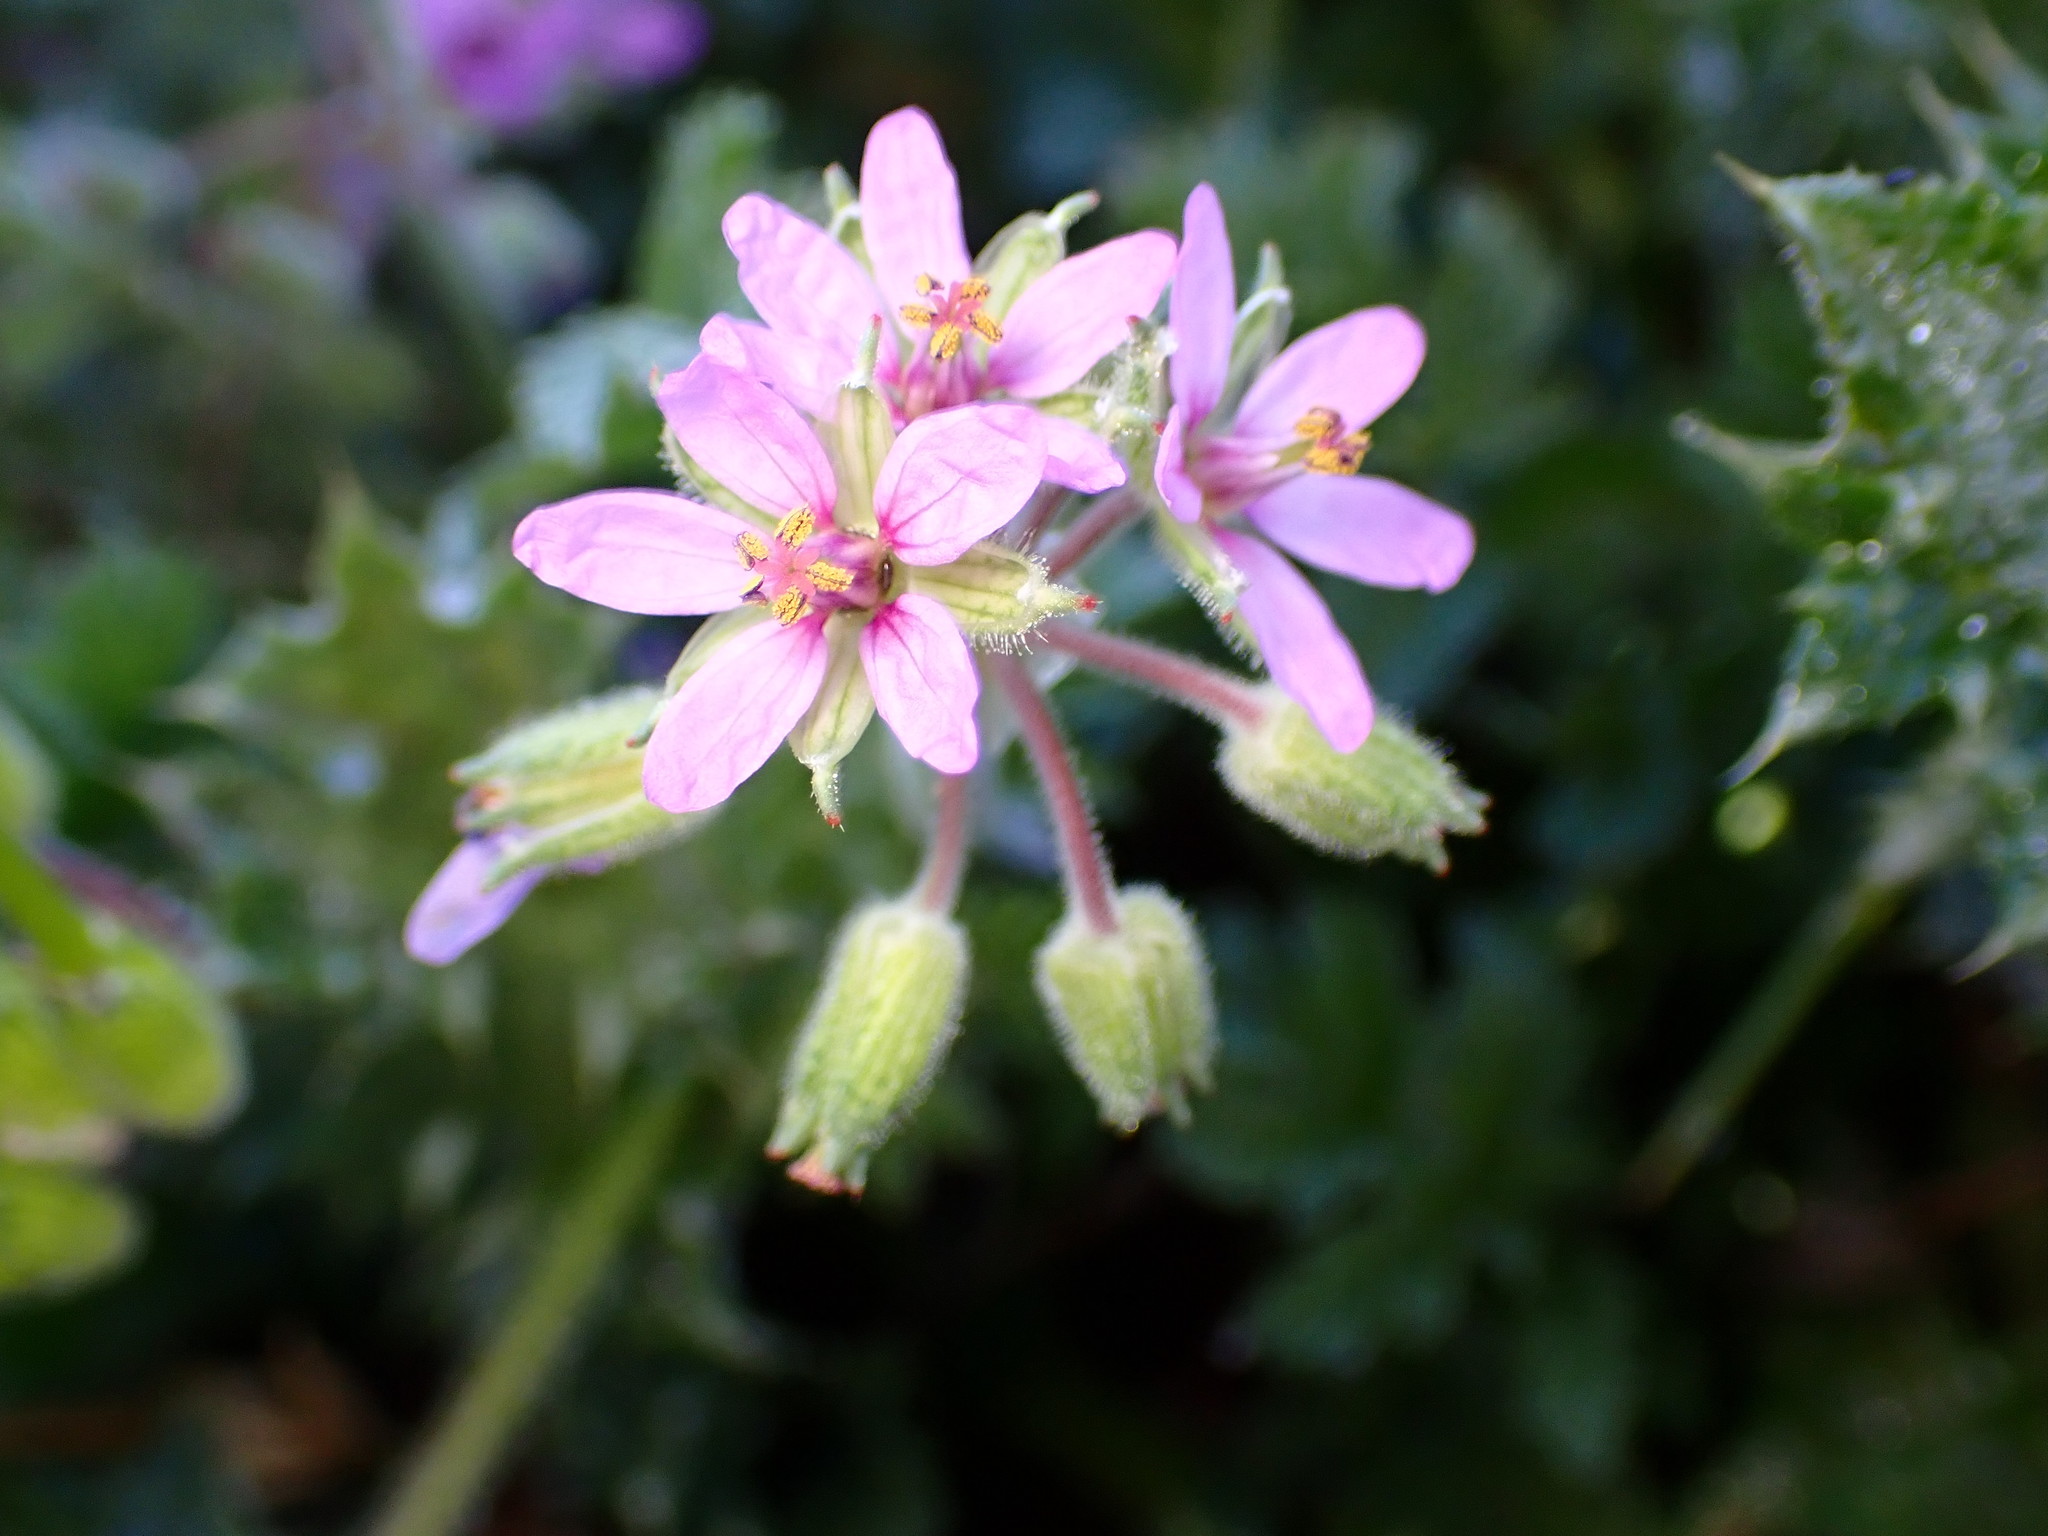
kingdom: Plantae
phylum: Tracheophyta
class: Magnoliopsida
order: Geraniales
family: Geraniaceae
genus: Erodium
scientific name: Erodium moschatum
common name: Musk stork's-bill
